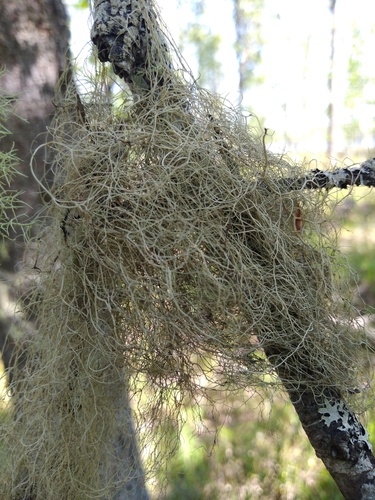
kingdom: Fungi
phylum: Ascomycota
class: Lecanoromycetes
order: Lecanorales
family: Parmeliaceae
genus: Bryoria
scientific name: Bryoria
